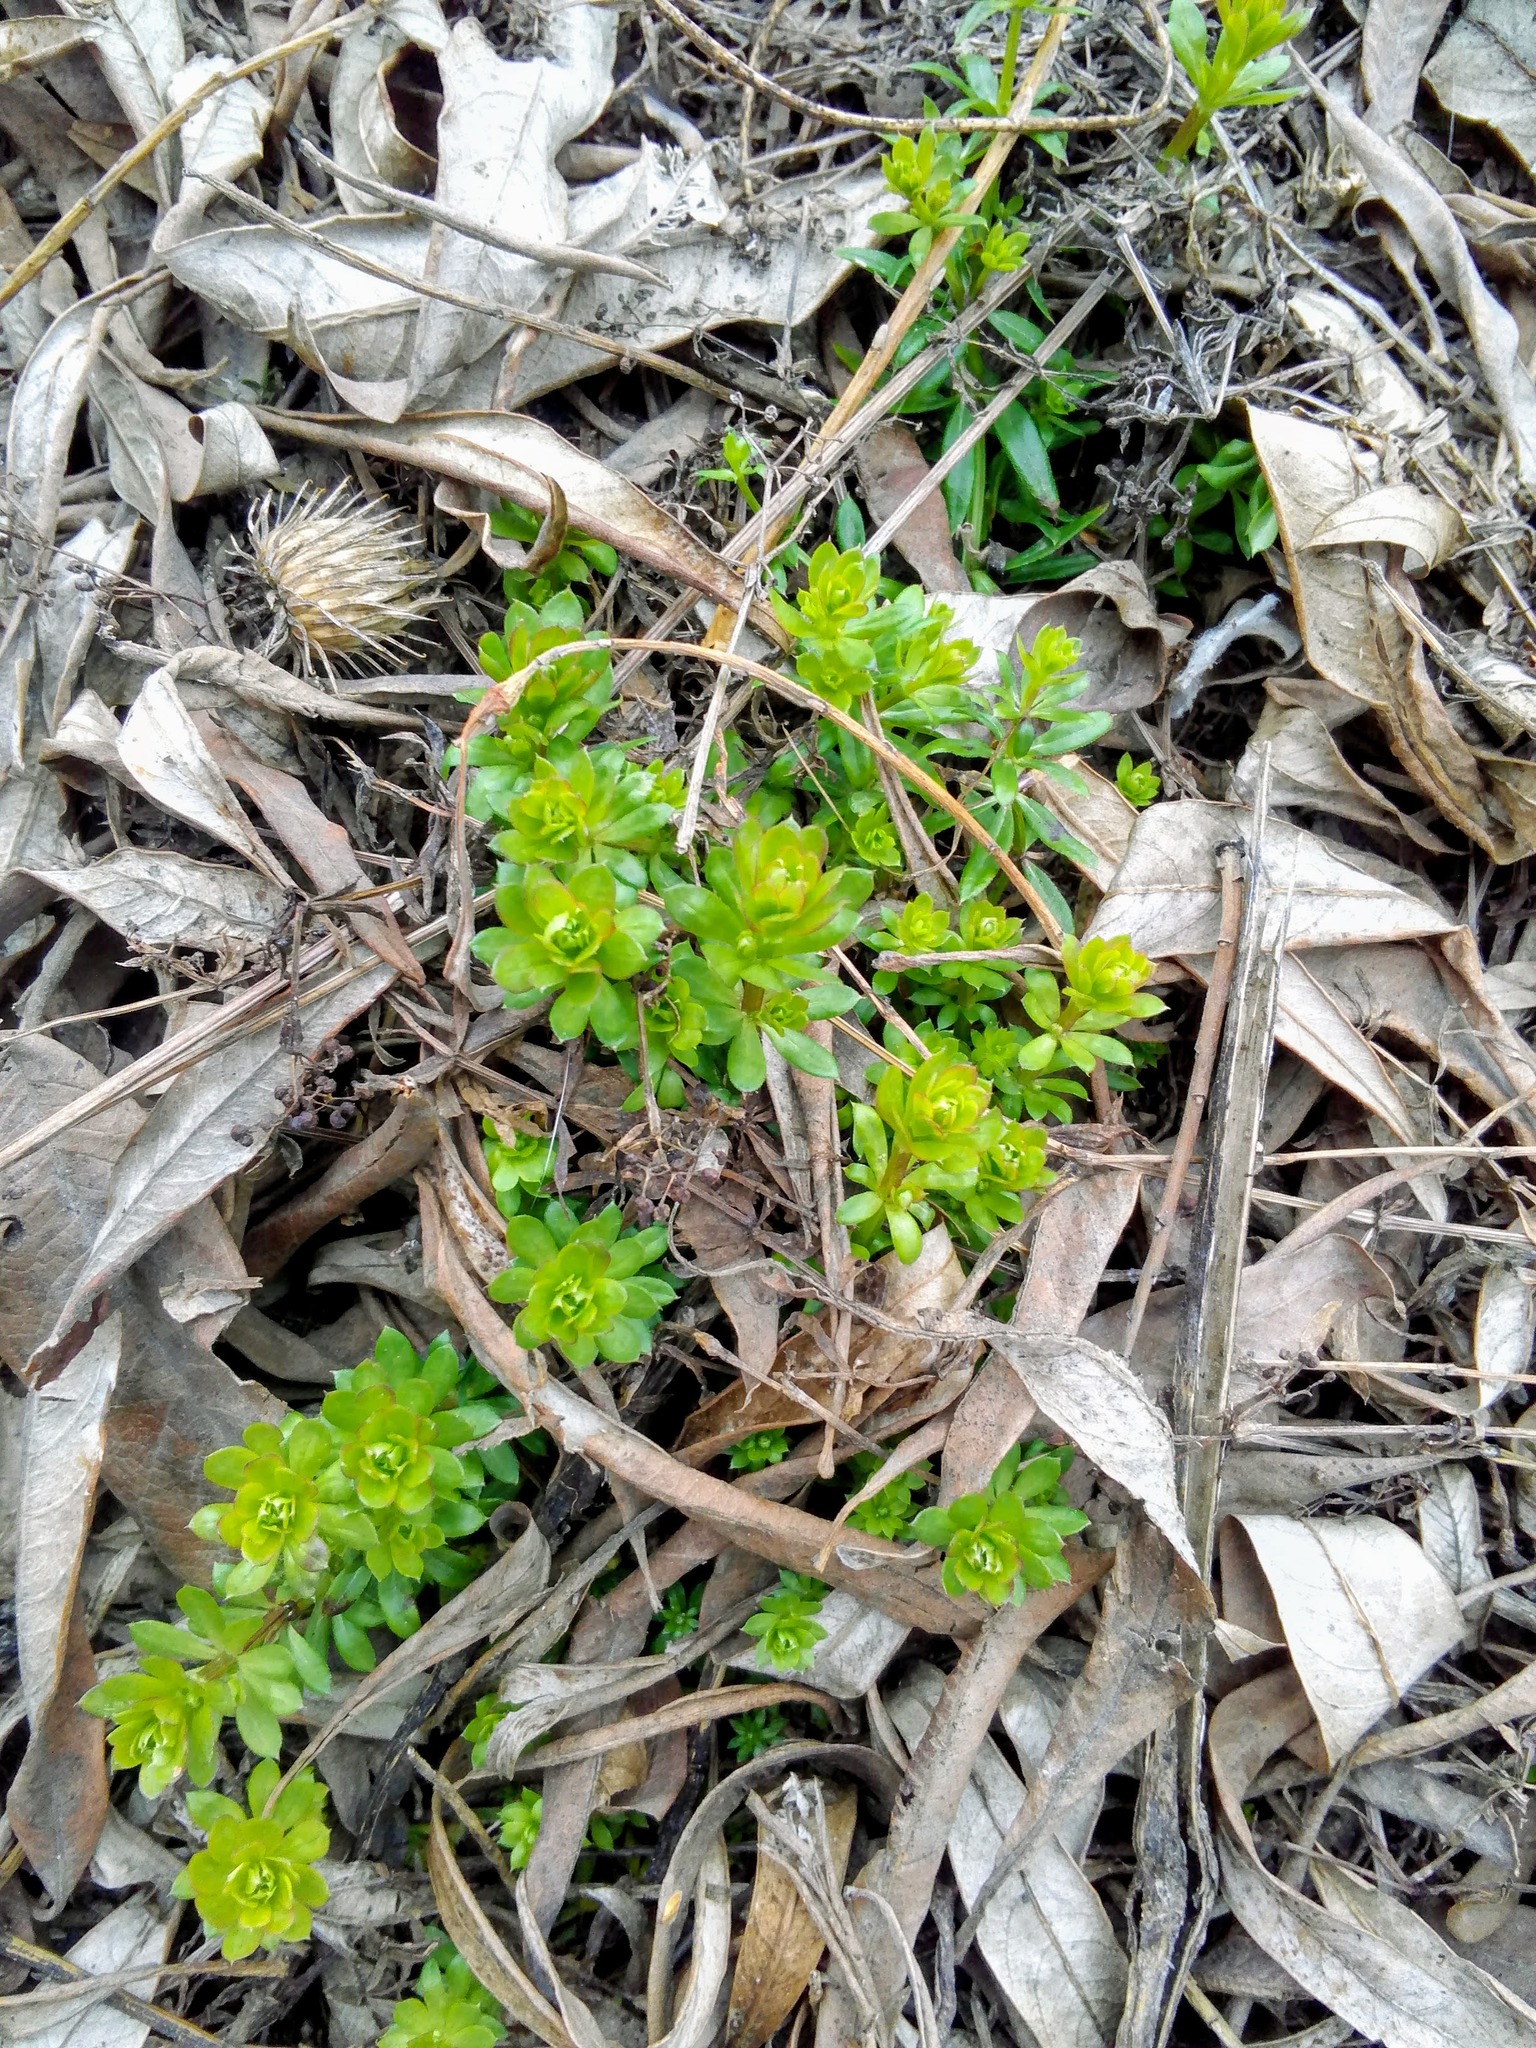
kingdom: Plantae
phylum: Tracheophyta
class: Magnoliopsida
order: Gentianales
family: Rubiaceae
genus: Galium
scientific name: Galium mollugo
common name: Hedge bedstraw
